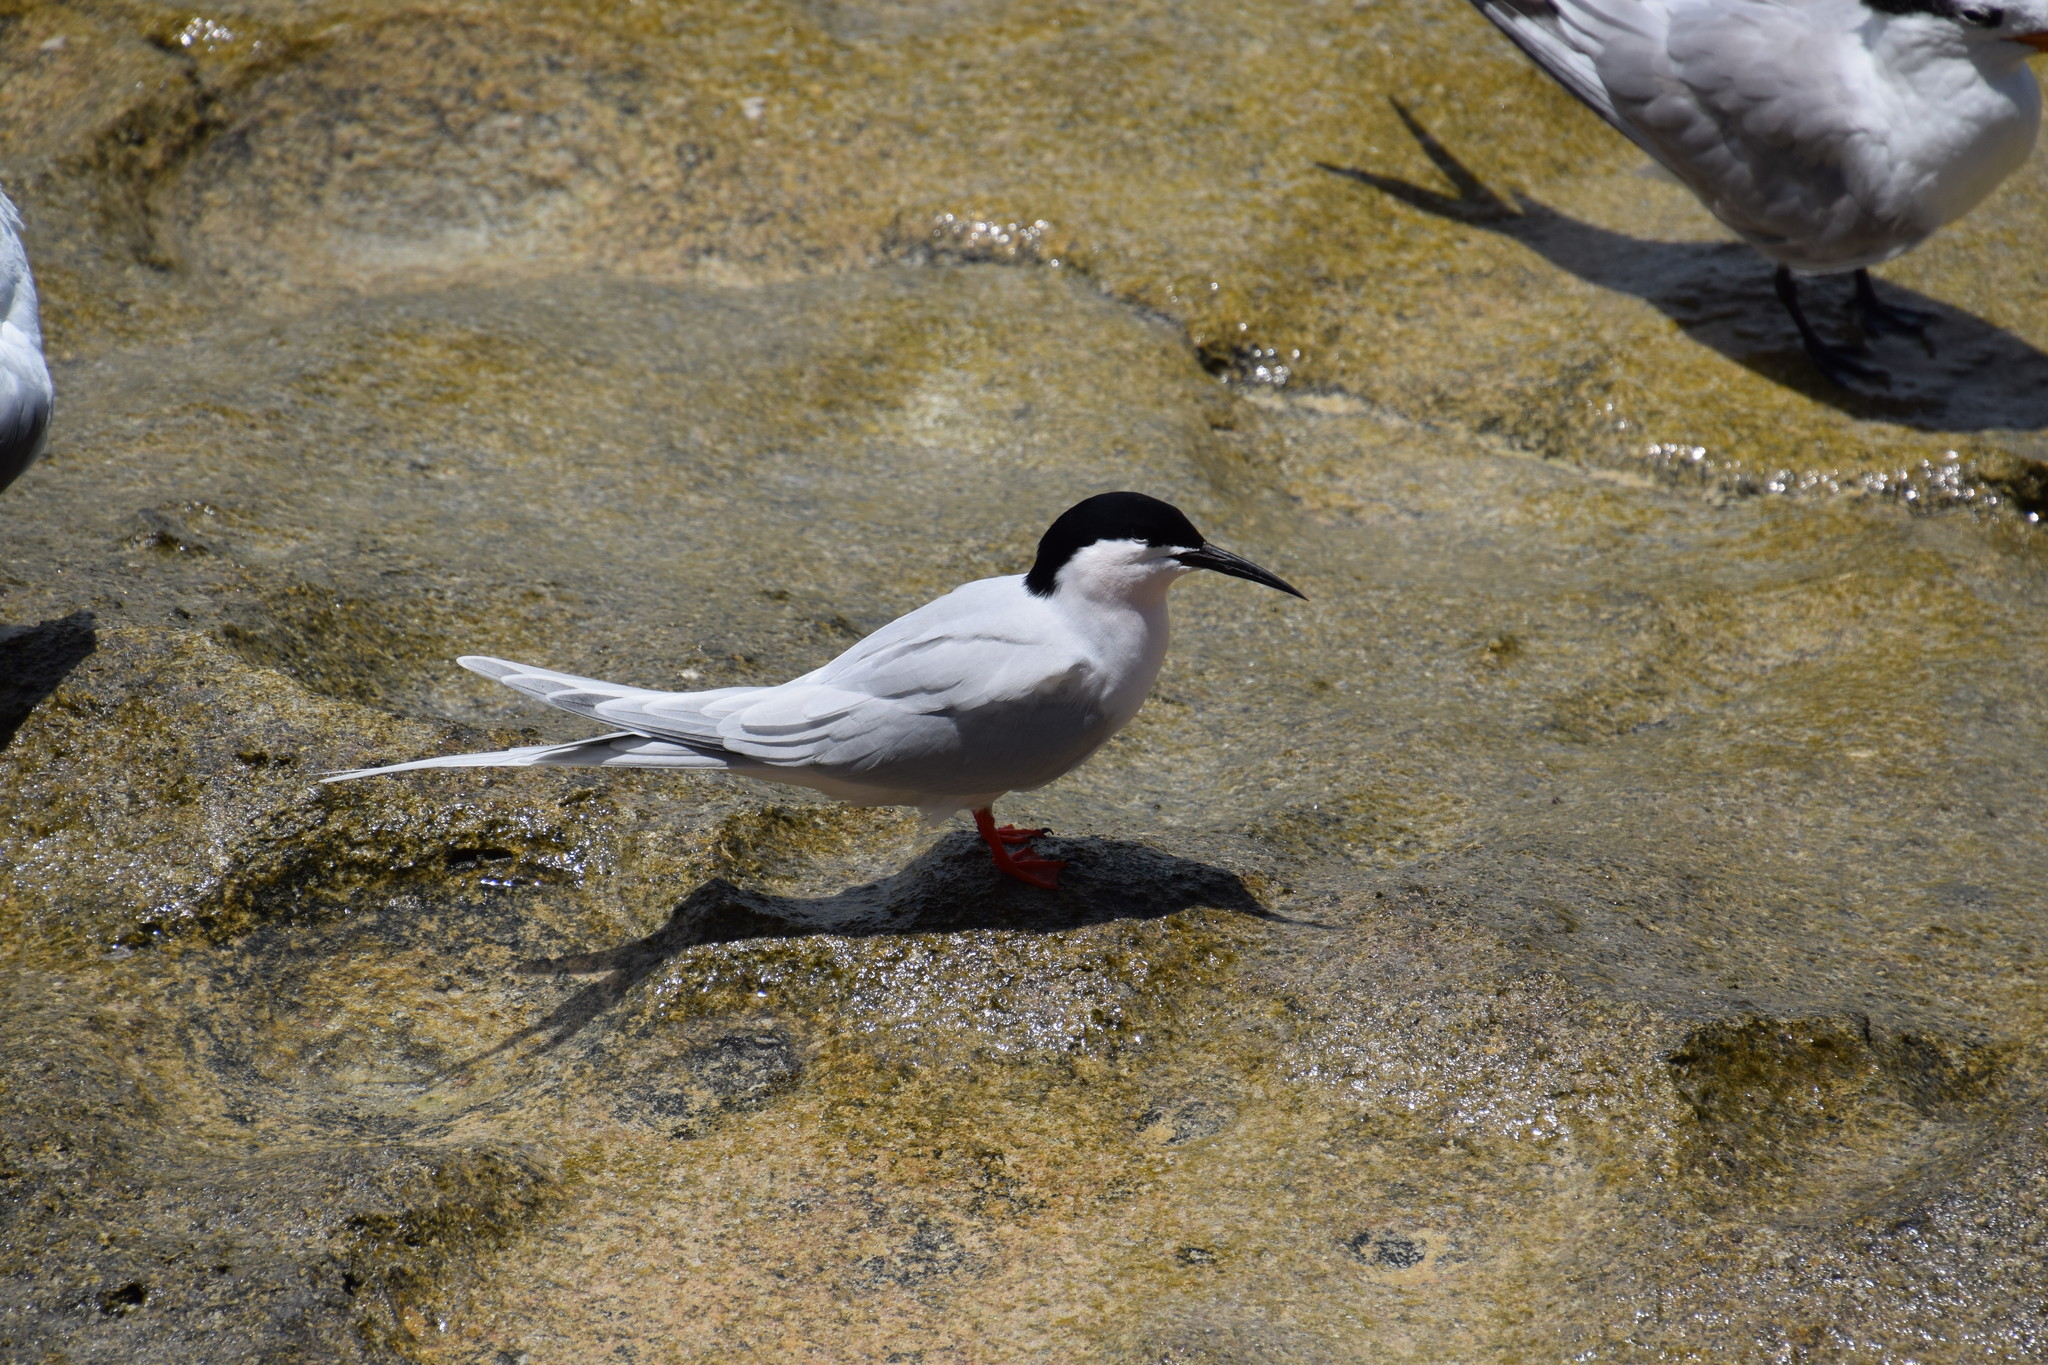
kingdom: Animalia
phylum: Chordata
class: Aves
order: Charadriiformes
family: Laridae
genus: Sterna
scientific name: Sterna dougallii
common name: Roseate tern
